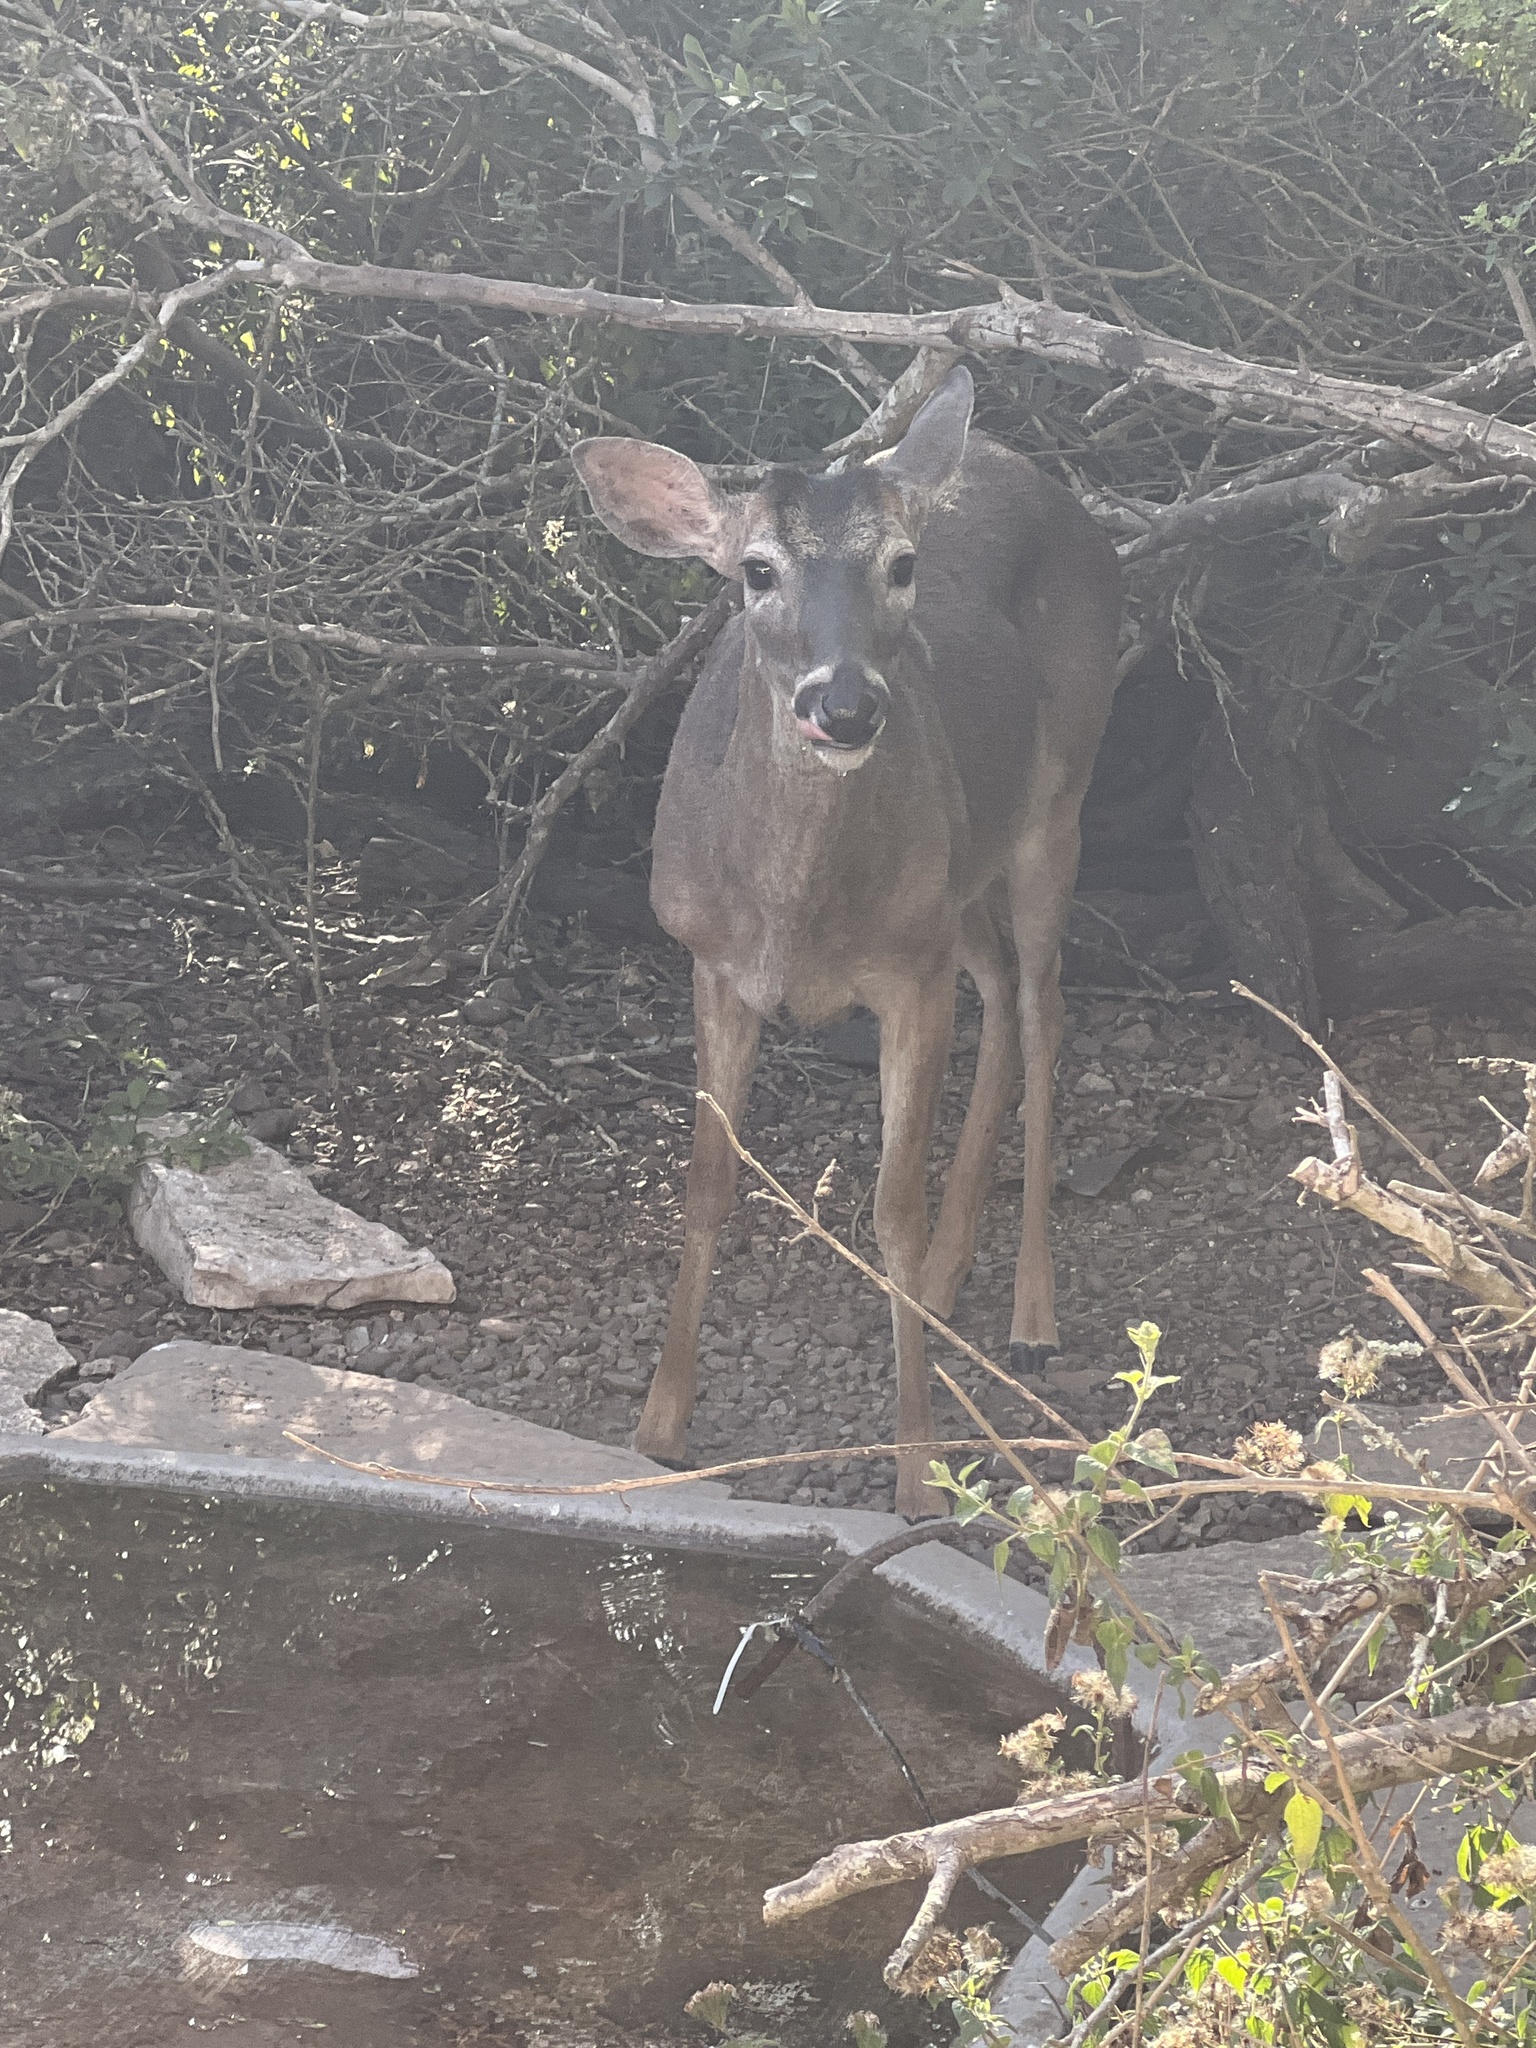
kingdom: Animalia
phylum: Chordata
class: Mammalia
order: Artiodactyla
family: Cervidae
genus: Odocoileus
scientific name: Odocoileus virginianus
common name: White-tailed deer
